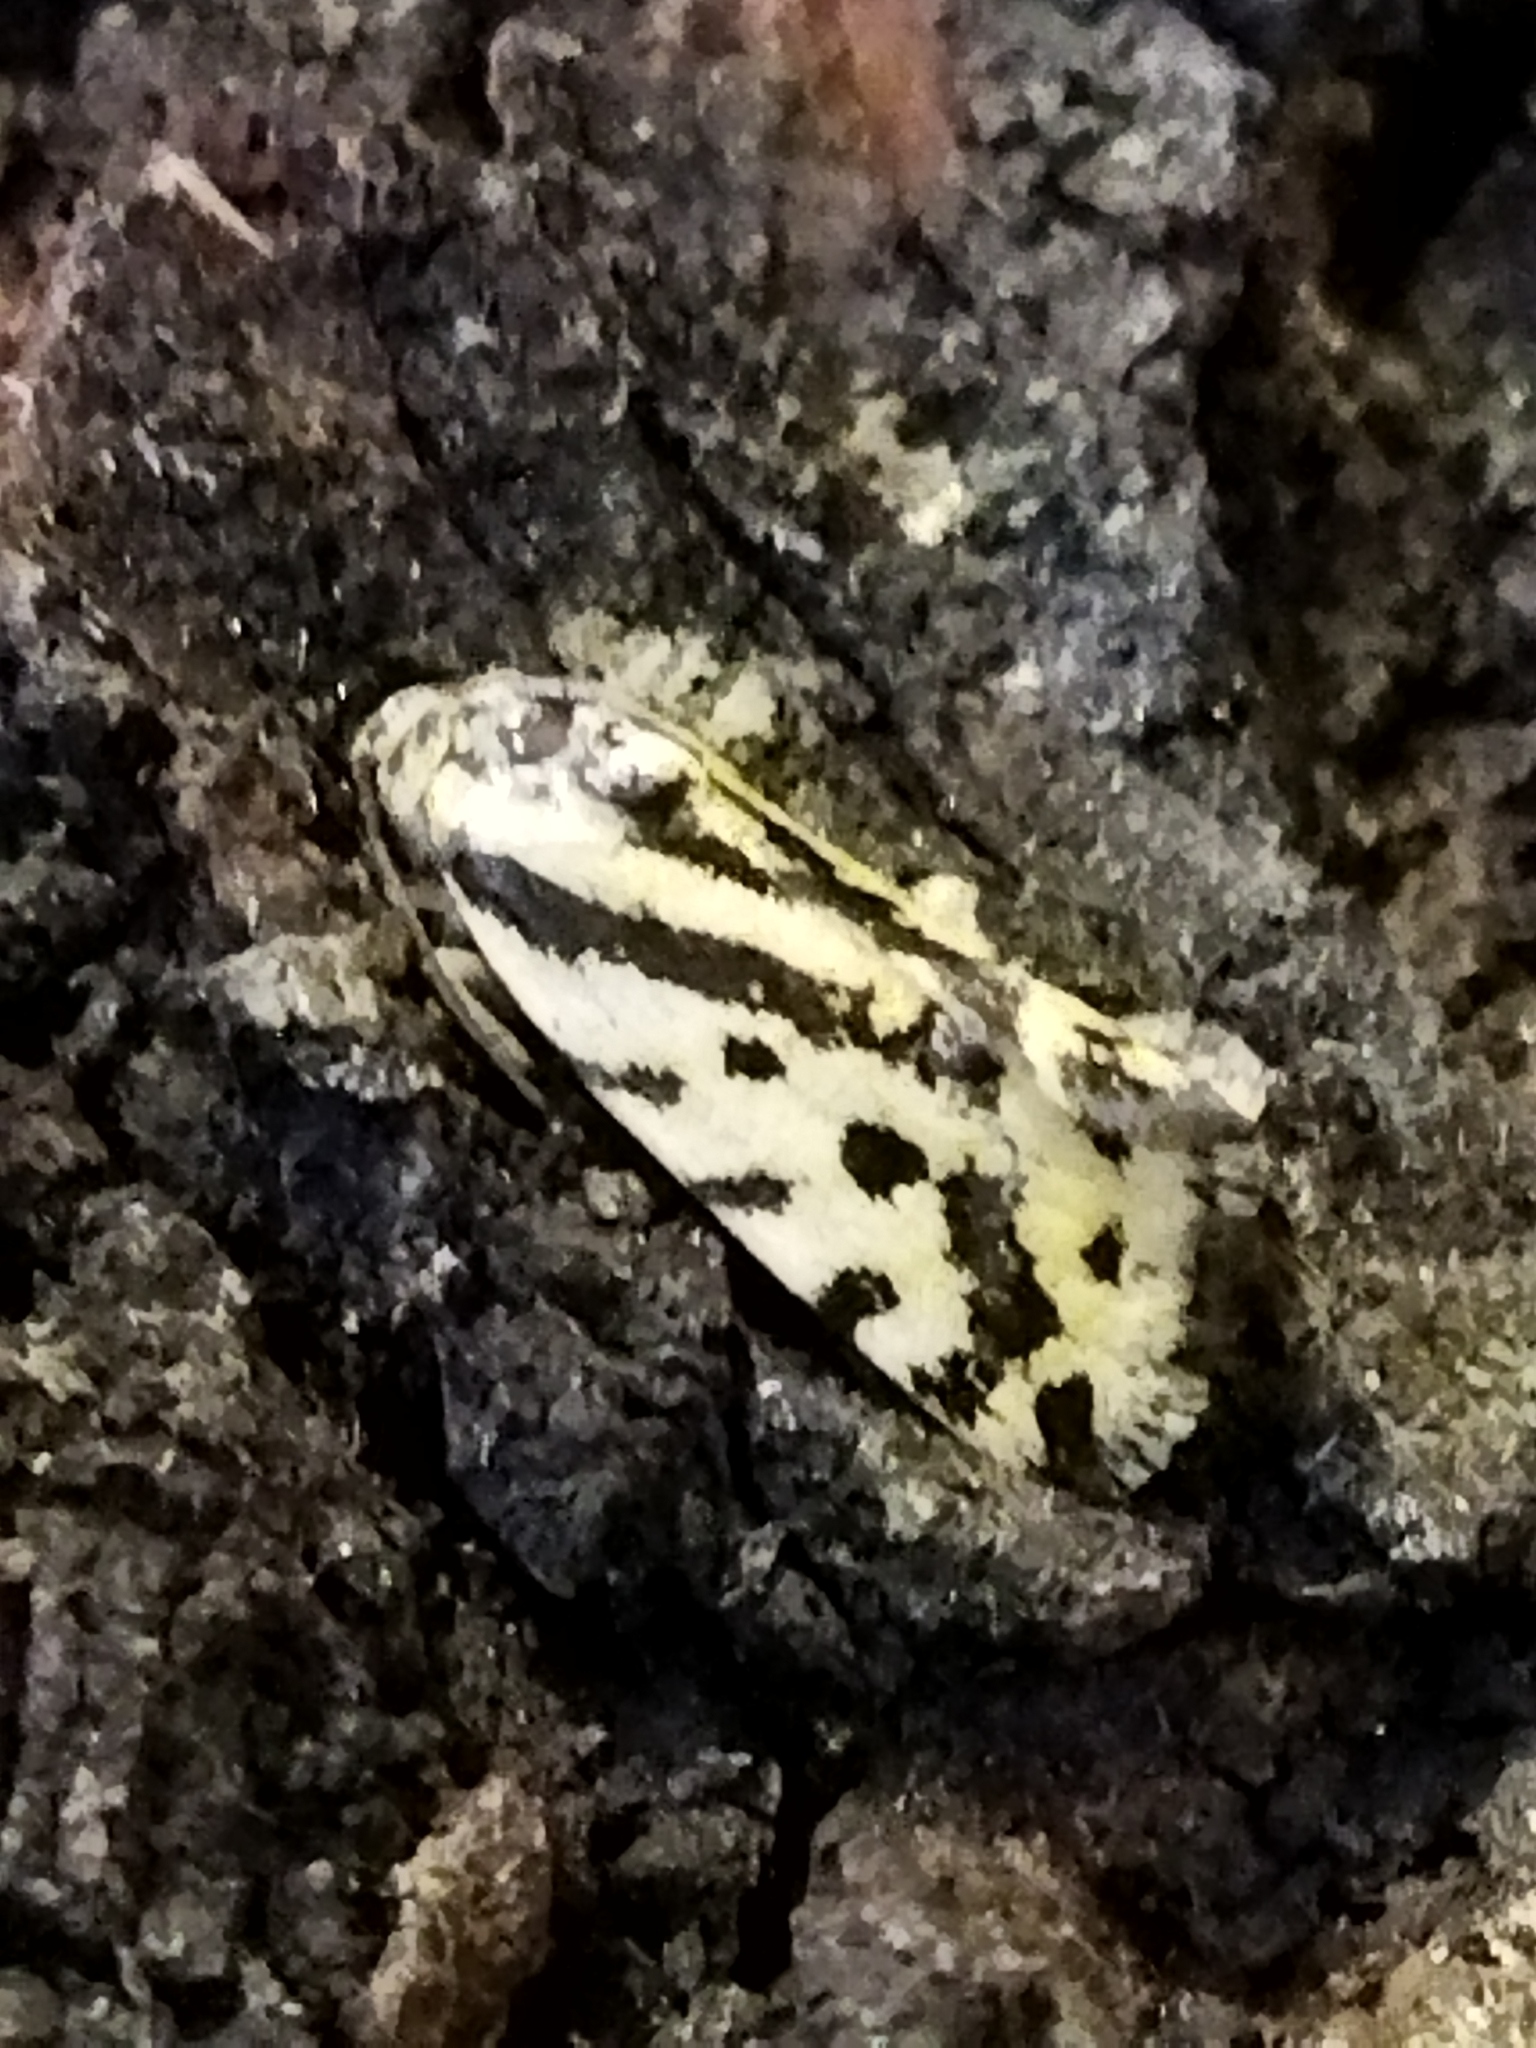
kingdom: Animalia
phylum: Arthropoda
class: Insecta
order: Lepidoptera
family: Noctuidae
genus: Acontia
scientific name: Acontia trabealis
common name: Spotted sulphur
